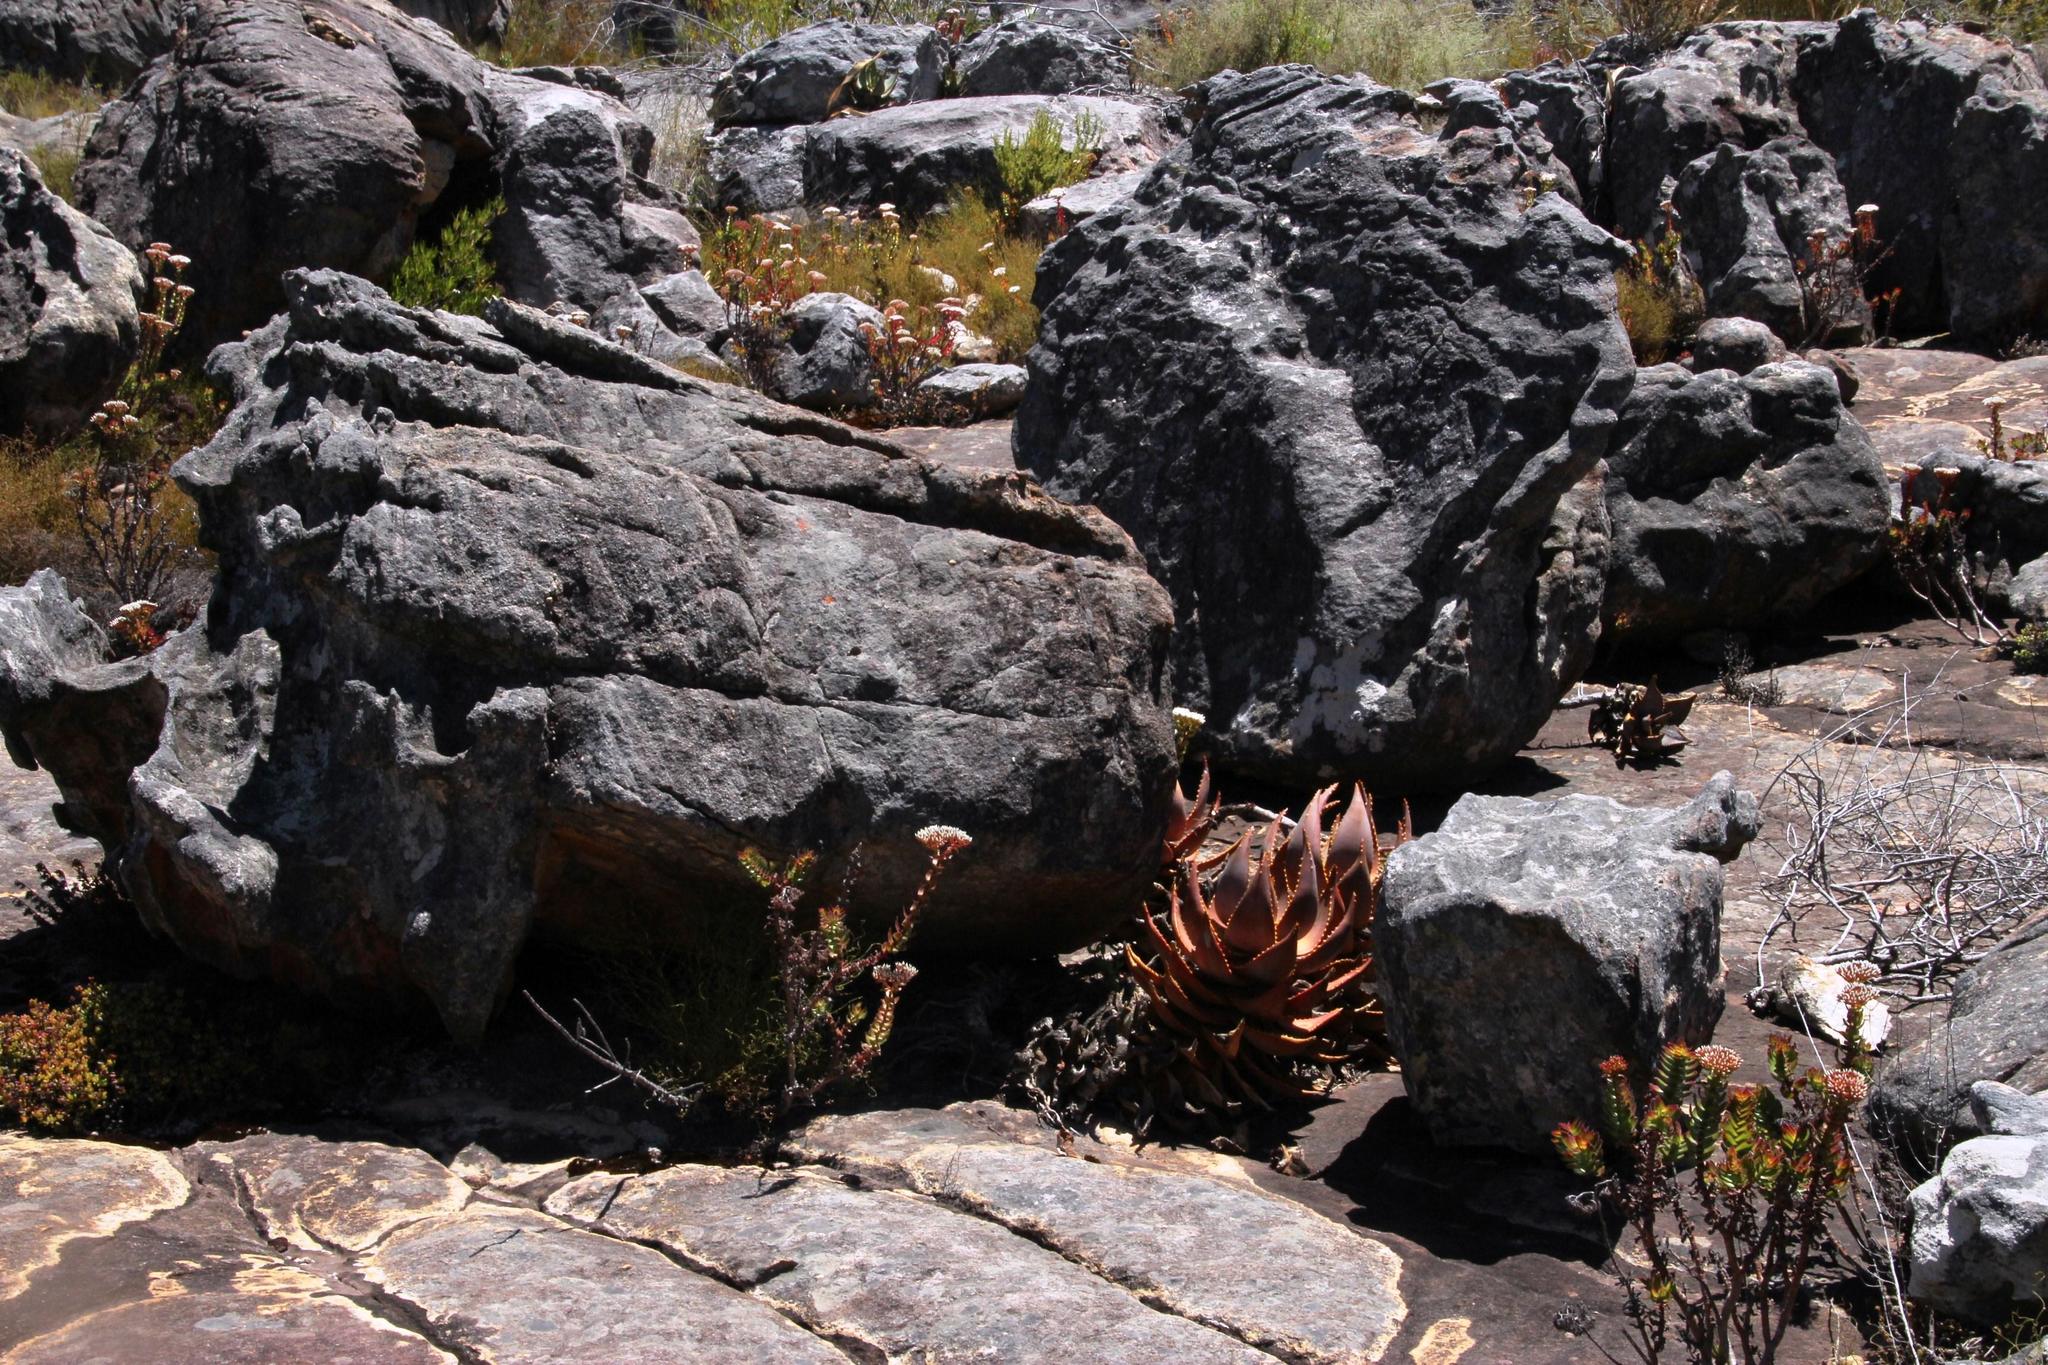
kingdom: Plantae
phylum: Tracheophyta
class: Liliopsida
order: Asparagales
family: Asphodelaceae
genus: Aloe
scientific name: Aloe perfoliata
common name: Mitra aloe
